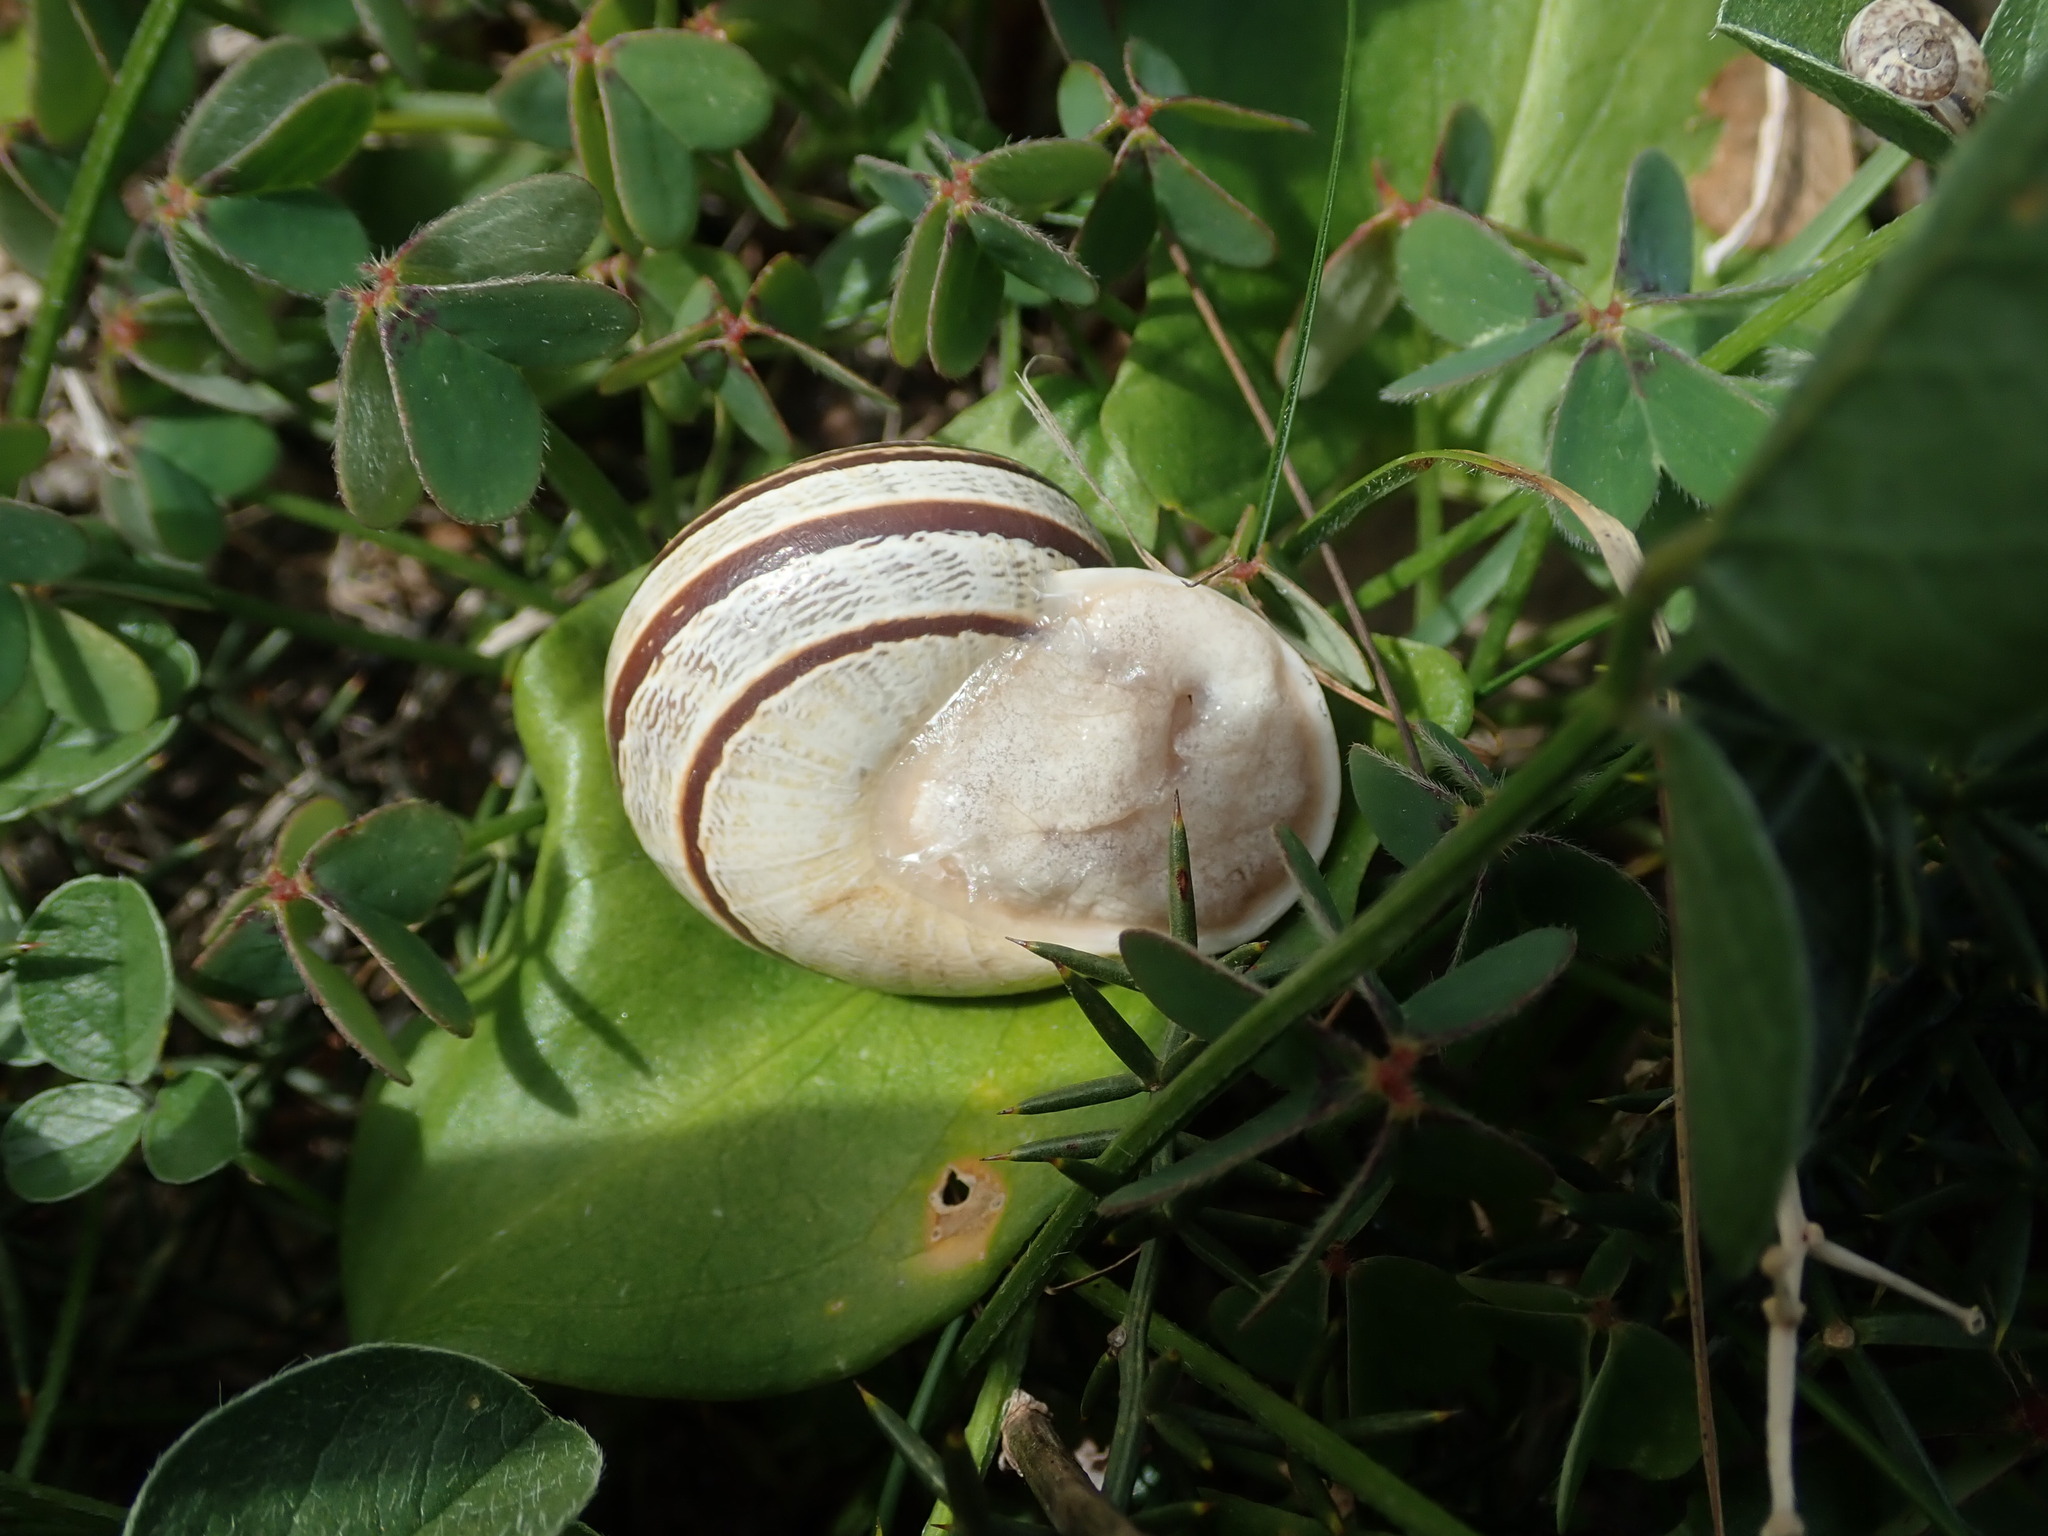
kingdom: Animalia
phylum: Mollusca
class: Gastropoda
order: Stylommatophora
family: Helicidae
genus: Eobania
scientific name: Eobania vermiculata
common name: Chocolateband snail
